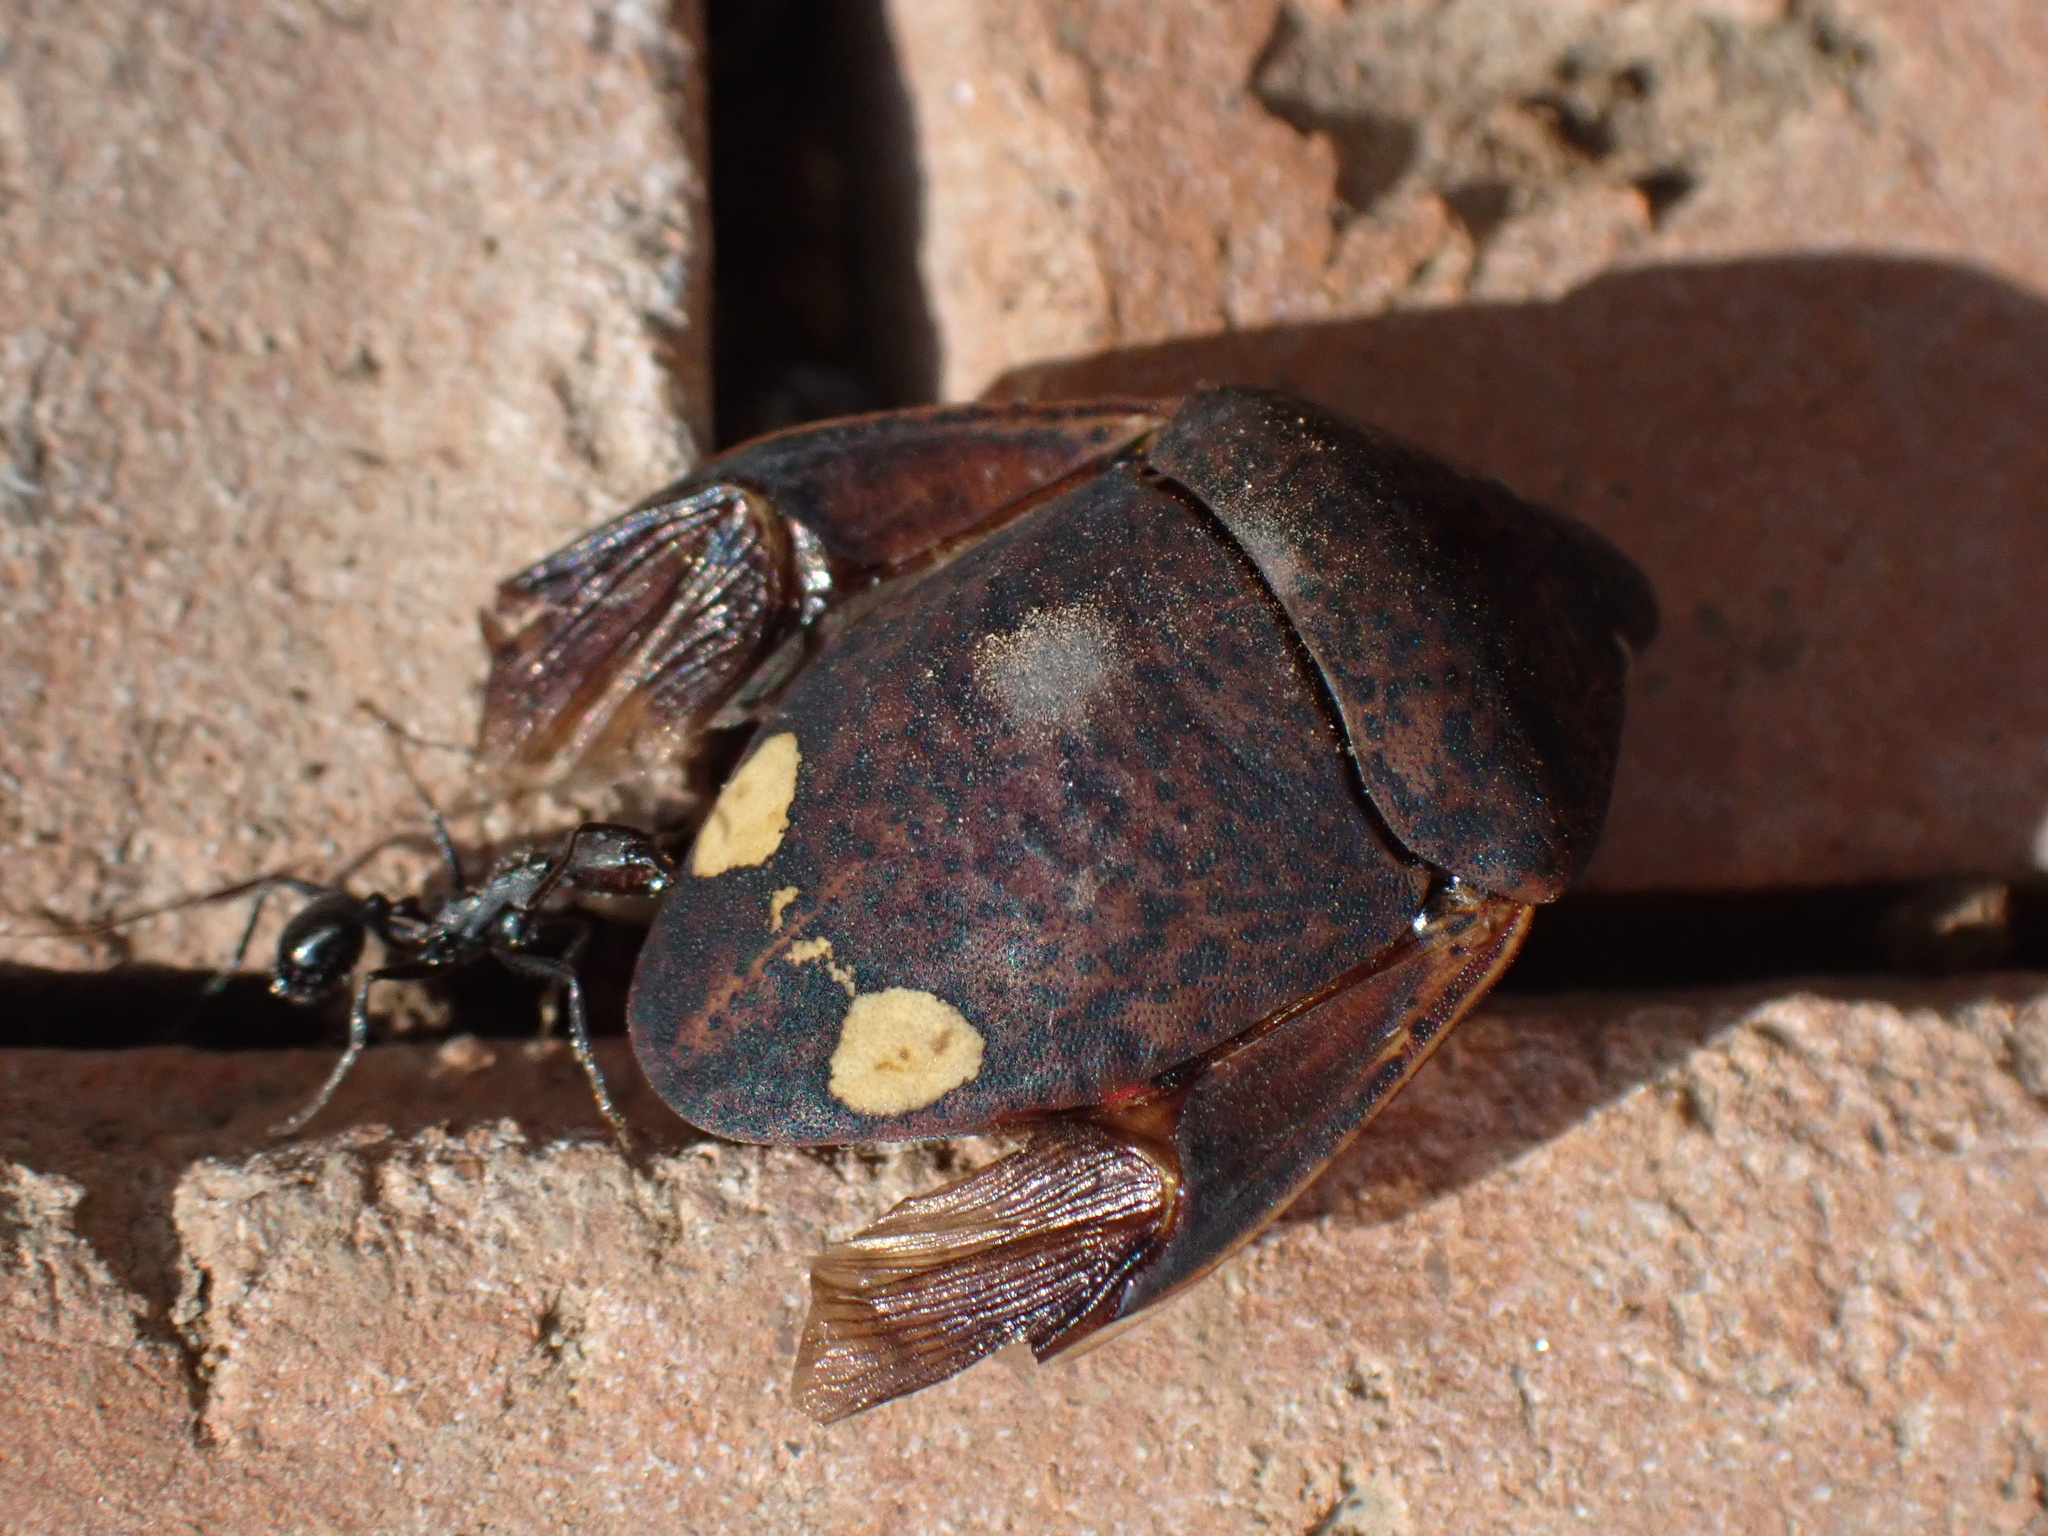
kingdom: Animalia
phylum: Arthropoda
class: Insecta
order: Hemiptera
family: Scutelleridae
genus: Solenosthedium
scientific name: Solenosthedium bilunatum
